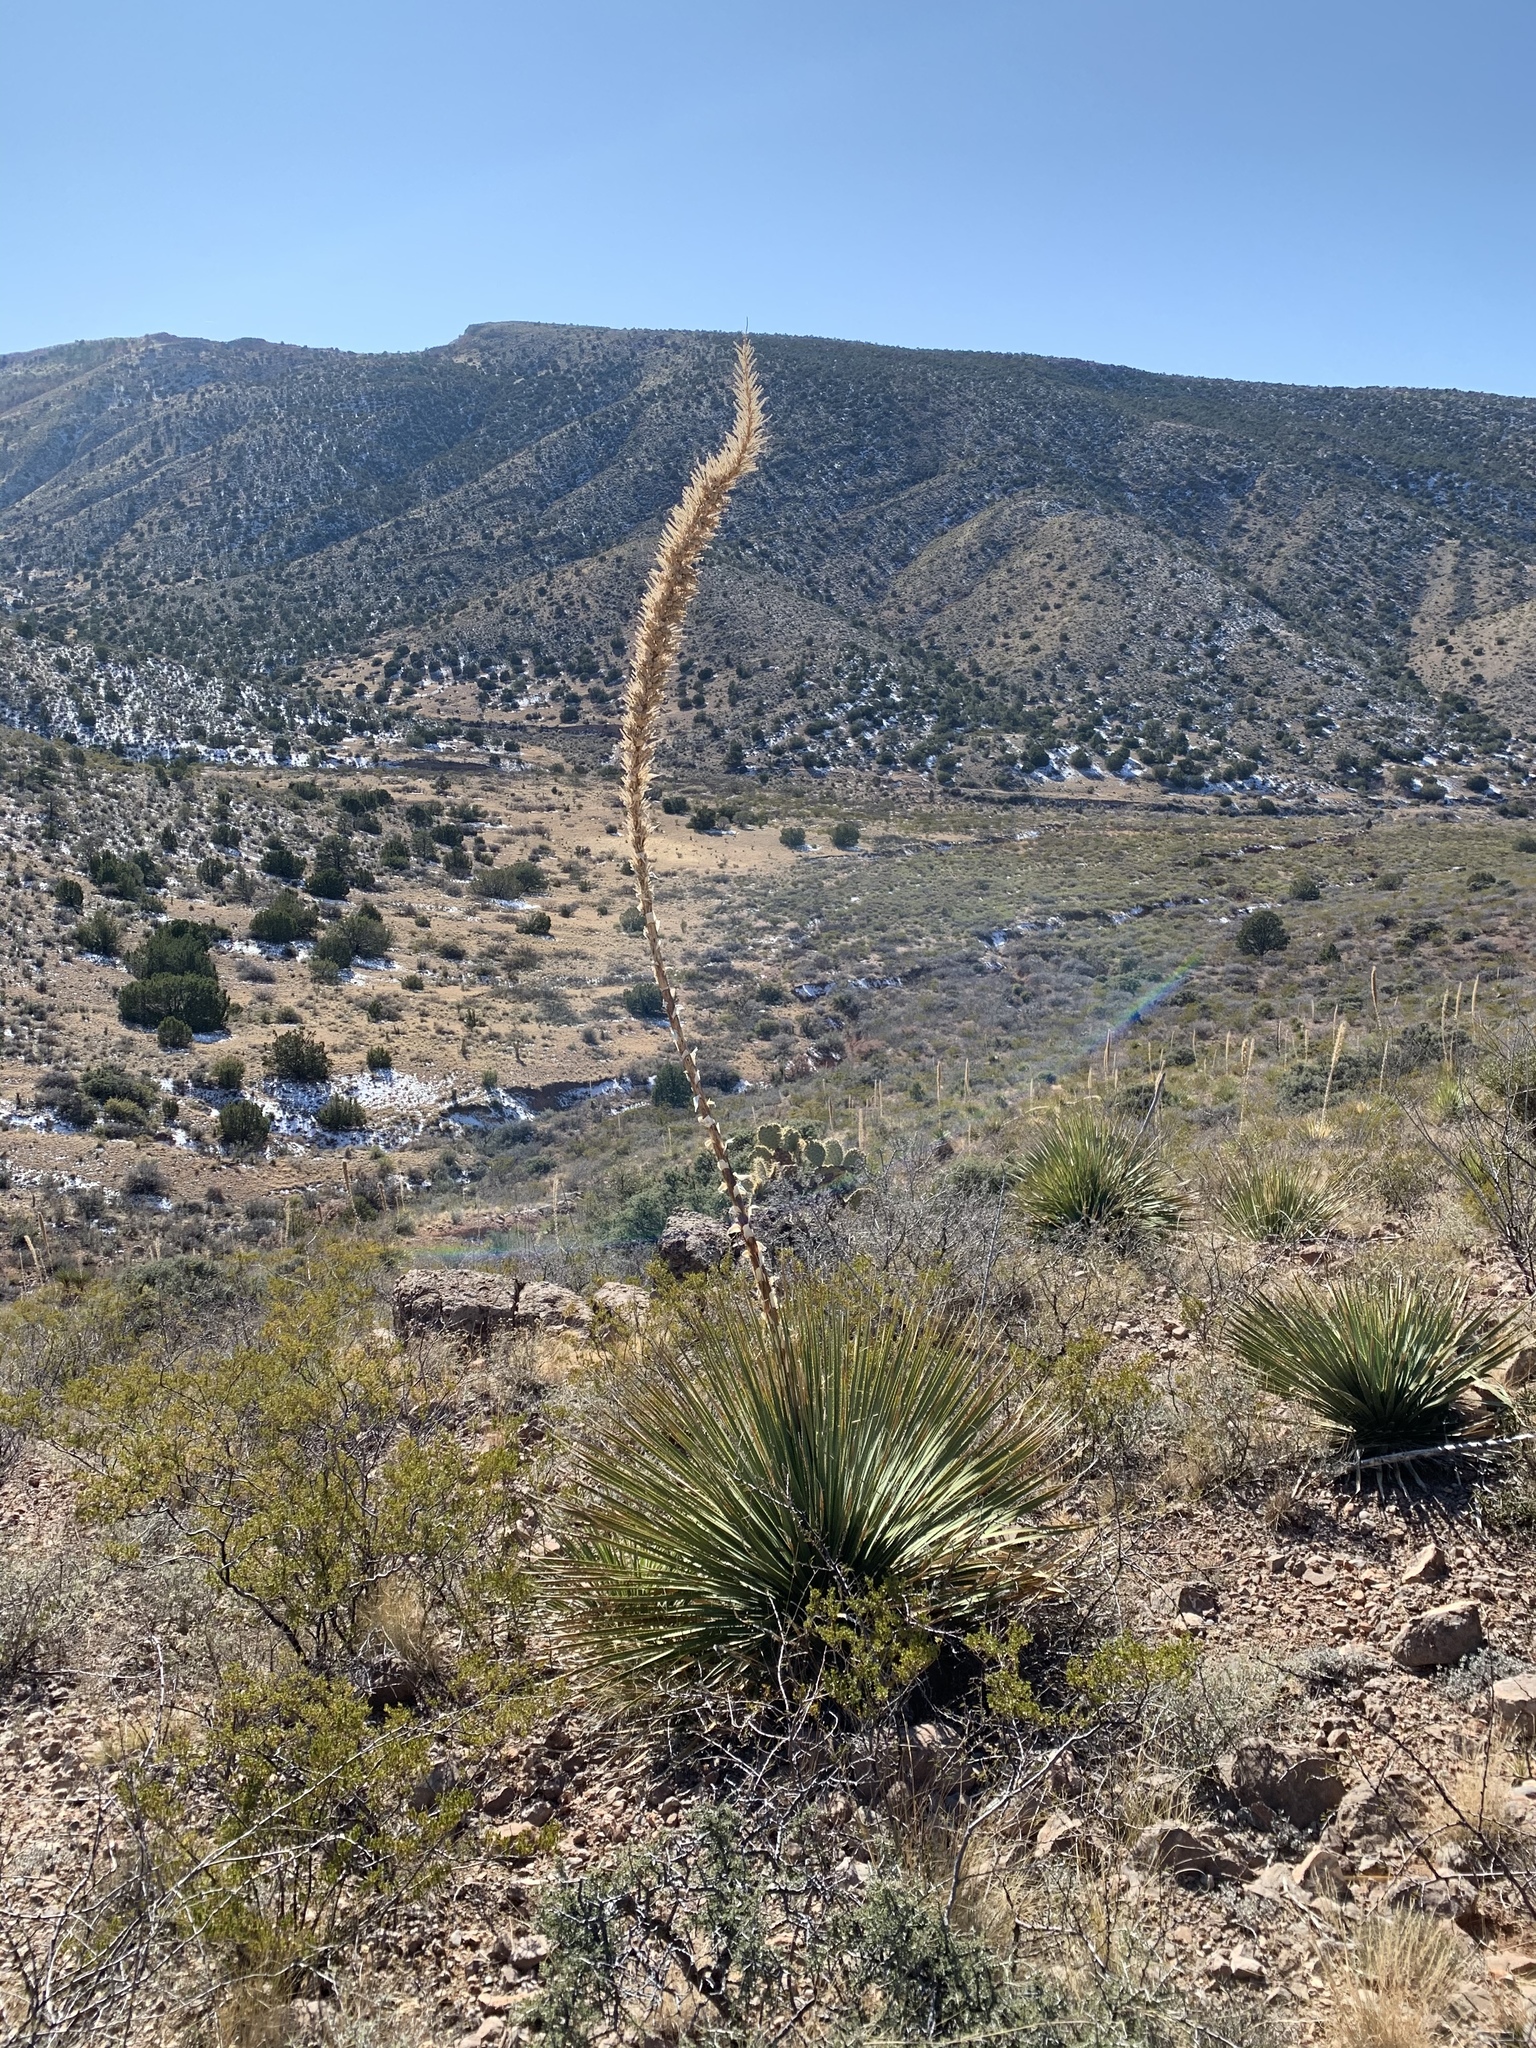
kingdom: Plantae
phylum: Tracheophyta
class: Liliopsida
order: Asparagales
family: Asparagaceae
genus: Dasylirion
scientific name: Dasylirion wheeleri
